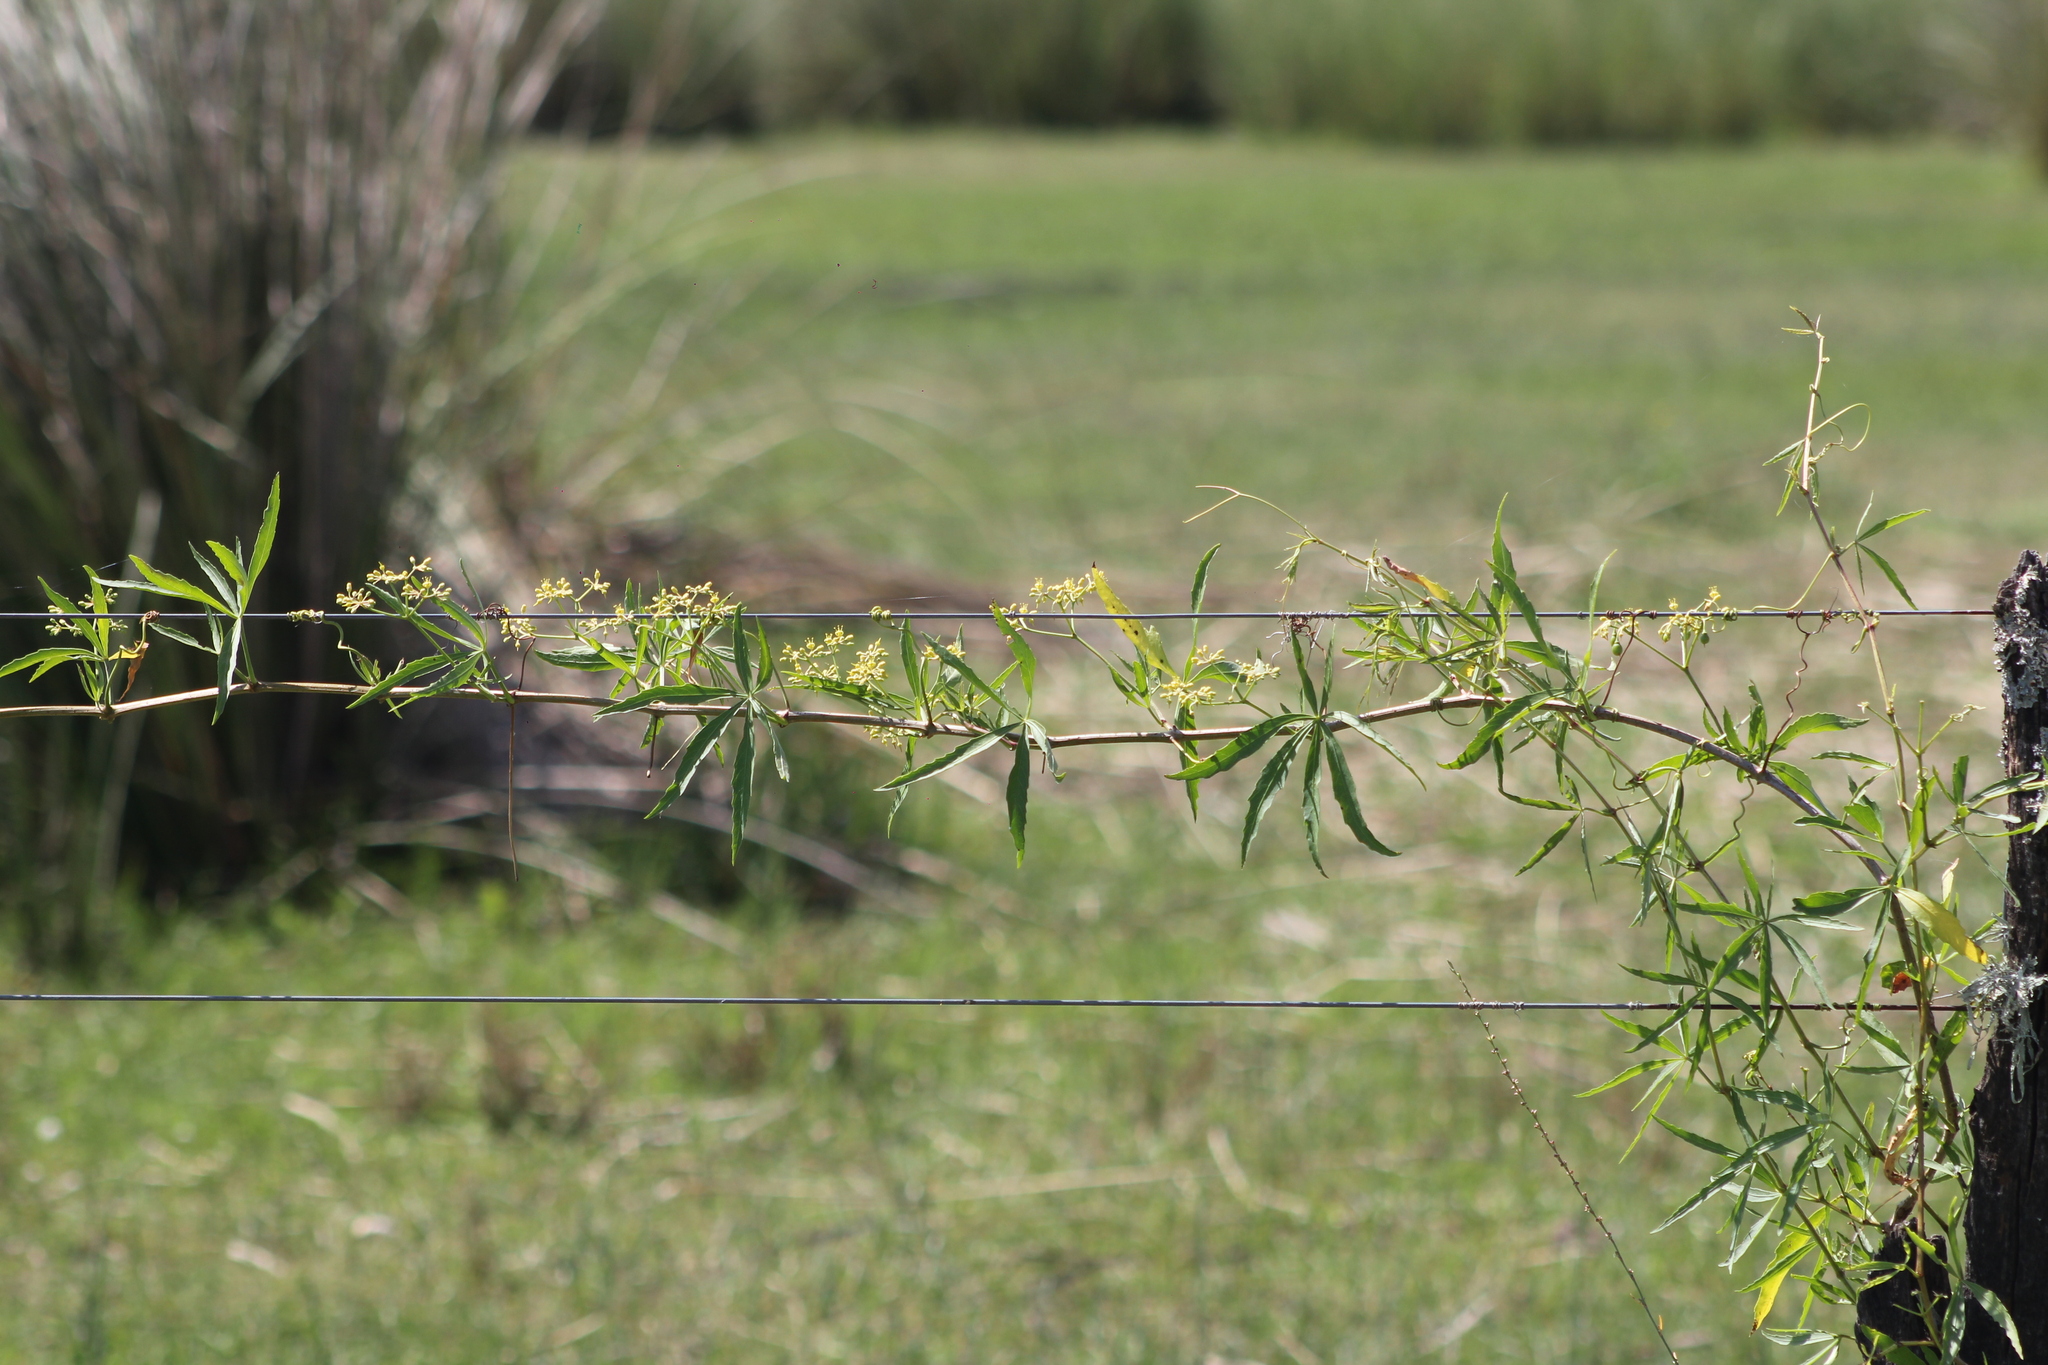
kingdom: Plantae
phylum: Tracheophyta
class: Magnoliopsida
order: Vitales
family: Vitaceae
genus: Cissus
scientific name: Cissus palmata
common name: Grape
